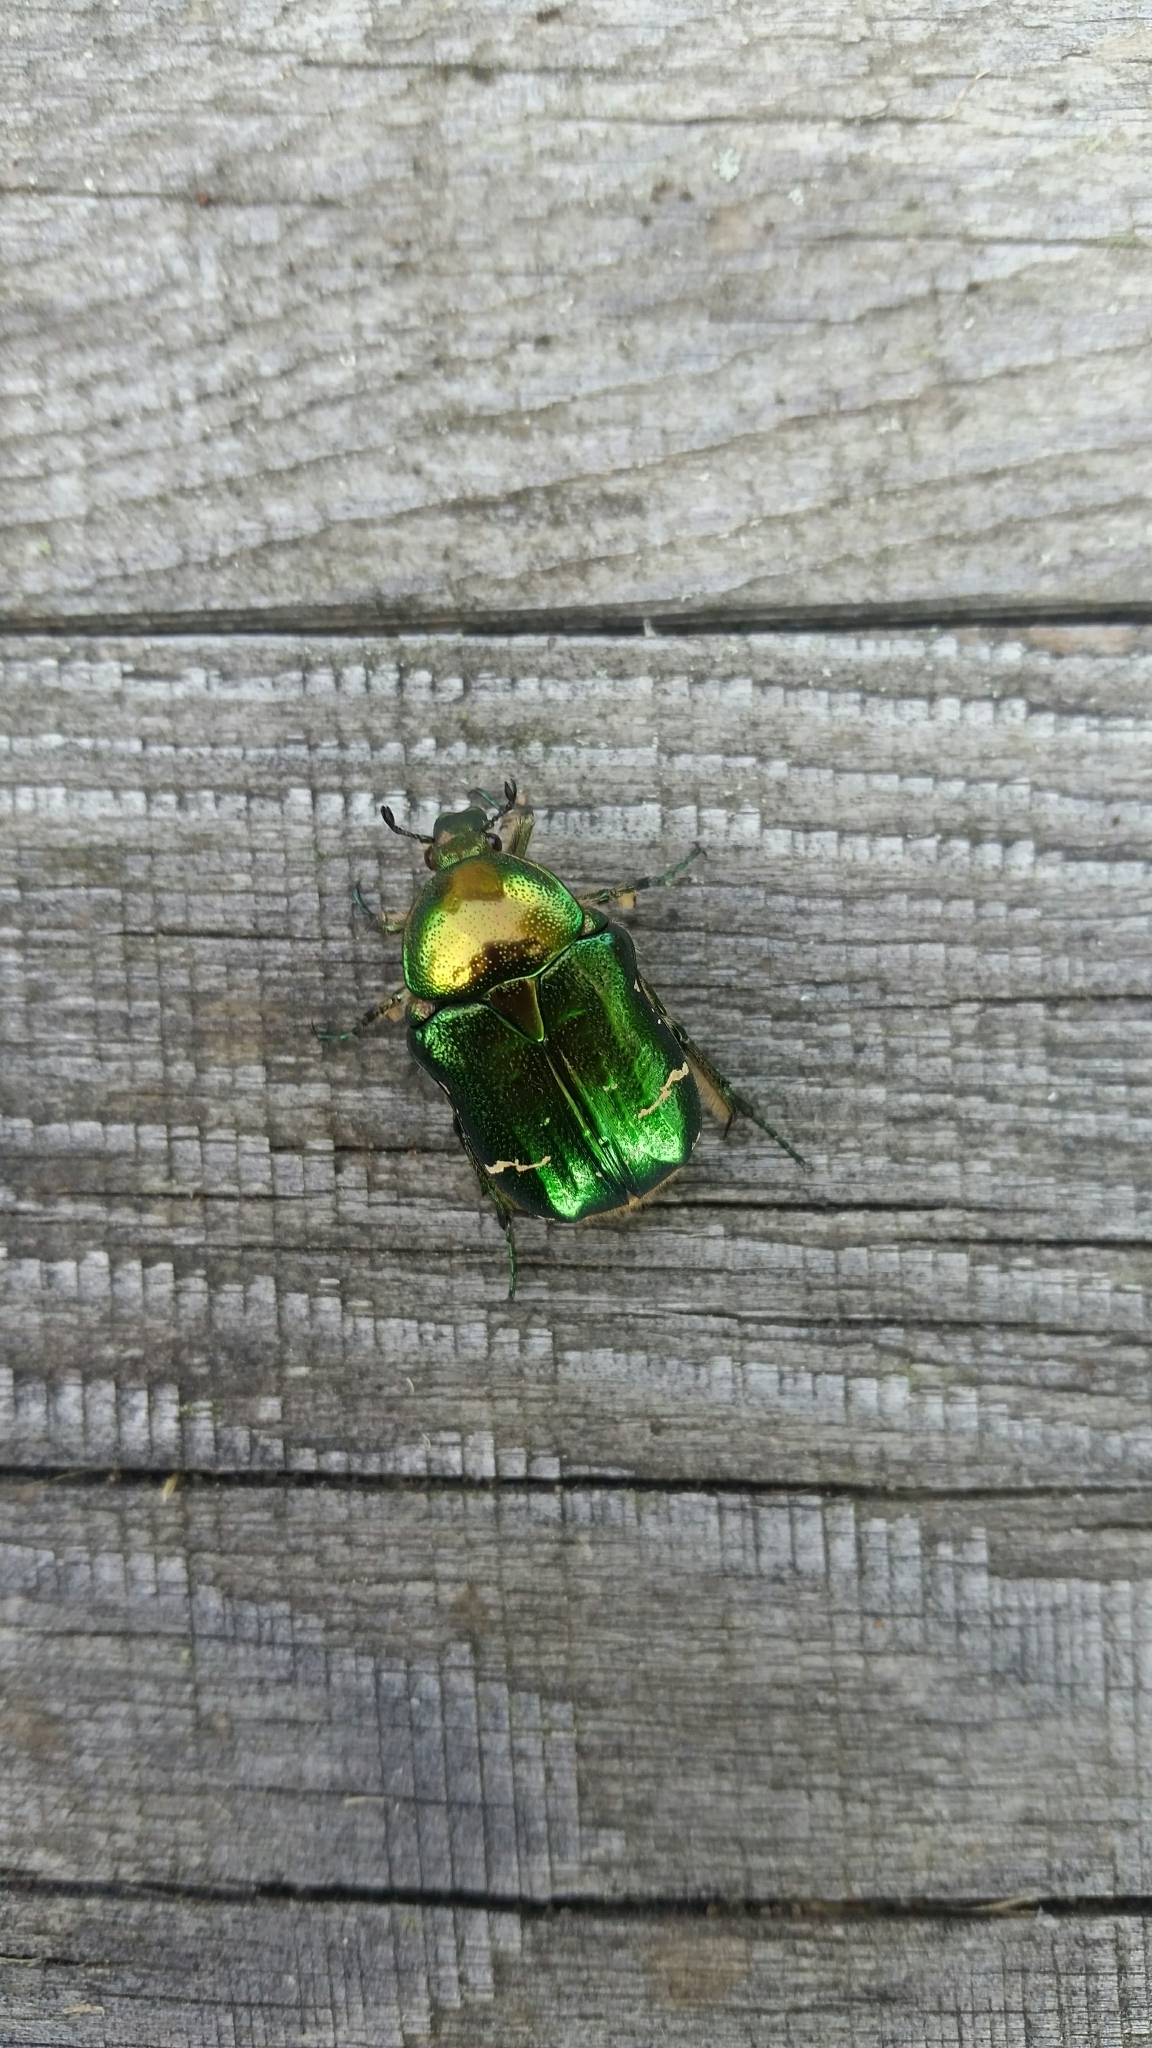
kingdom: Animalia
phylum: Arthropoda
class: Insecta
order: Coleoptera
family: Scarabaeidae
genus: Cetonia
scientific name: Cetonia aurata
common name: Rose chafer
